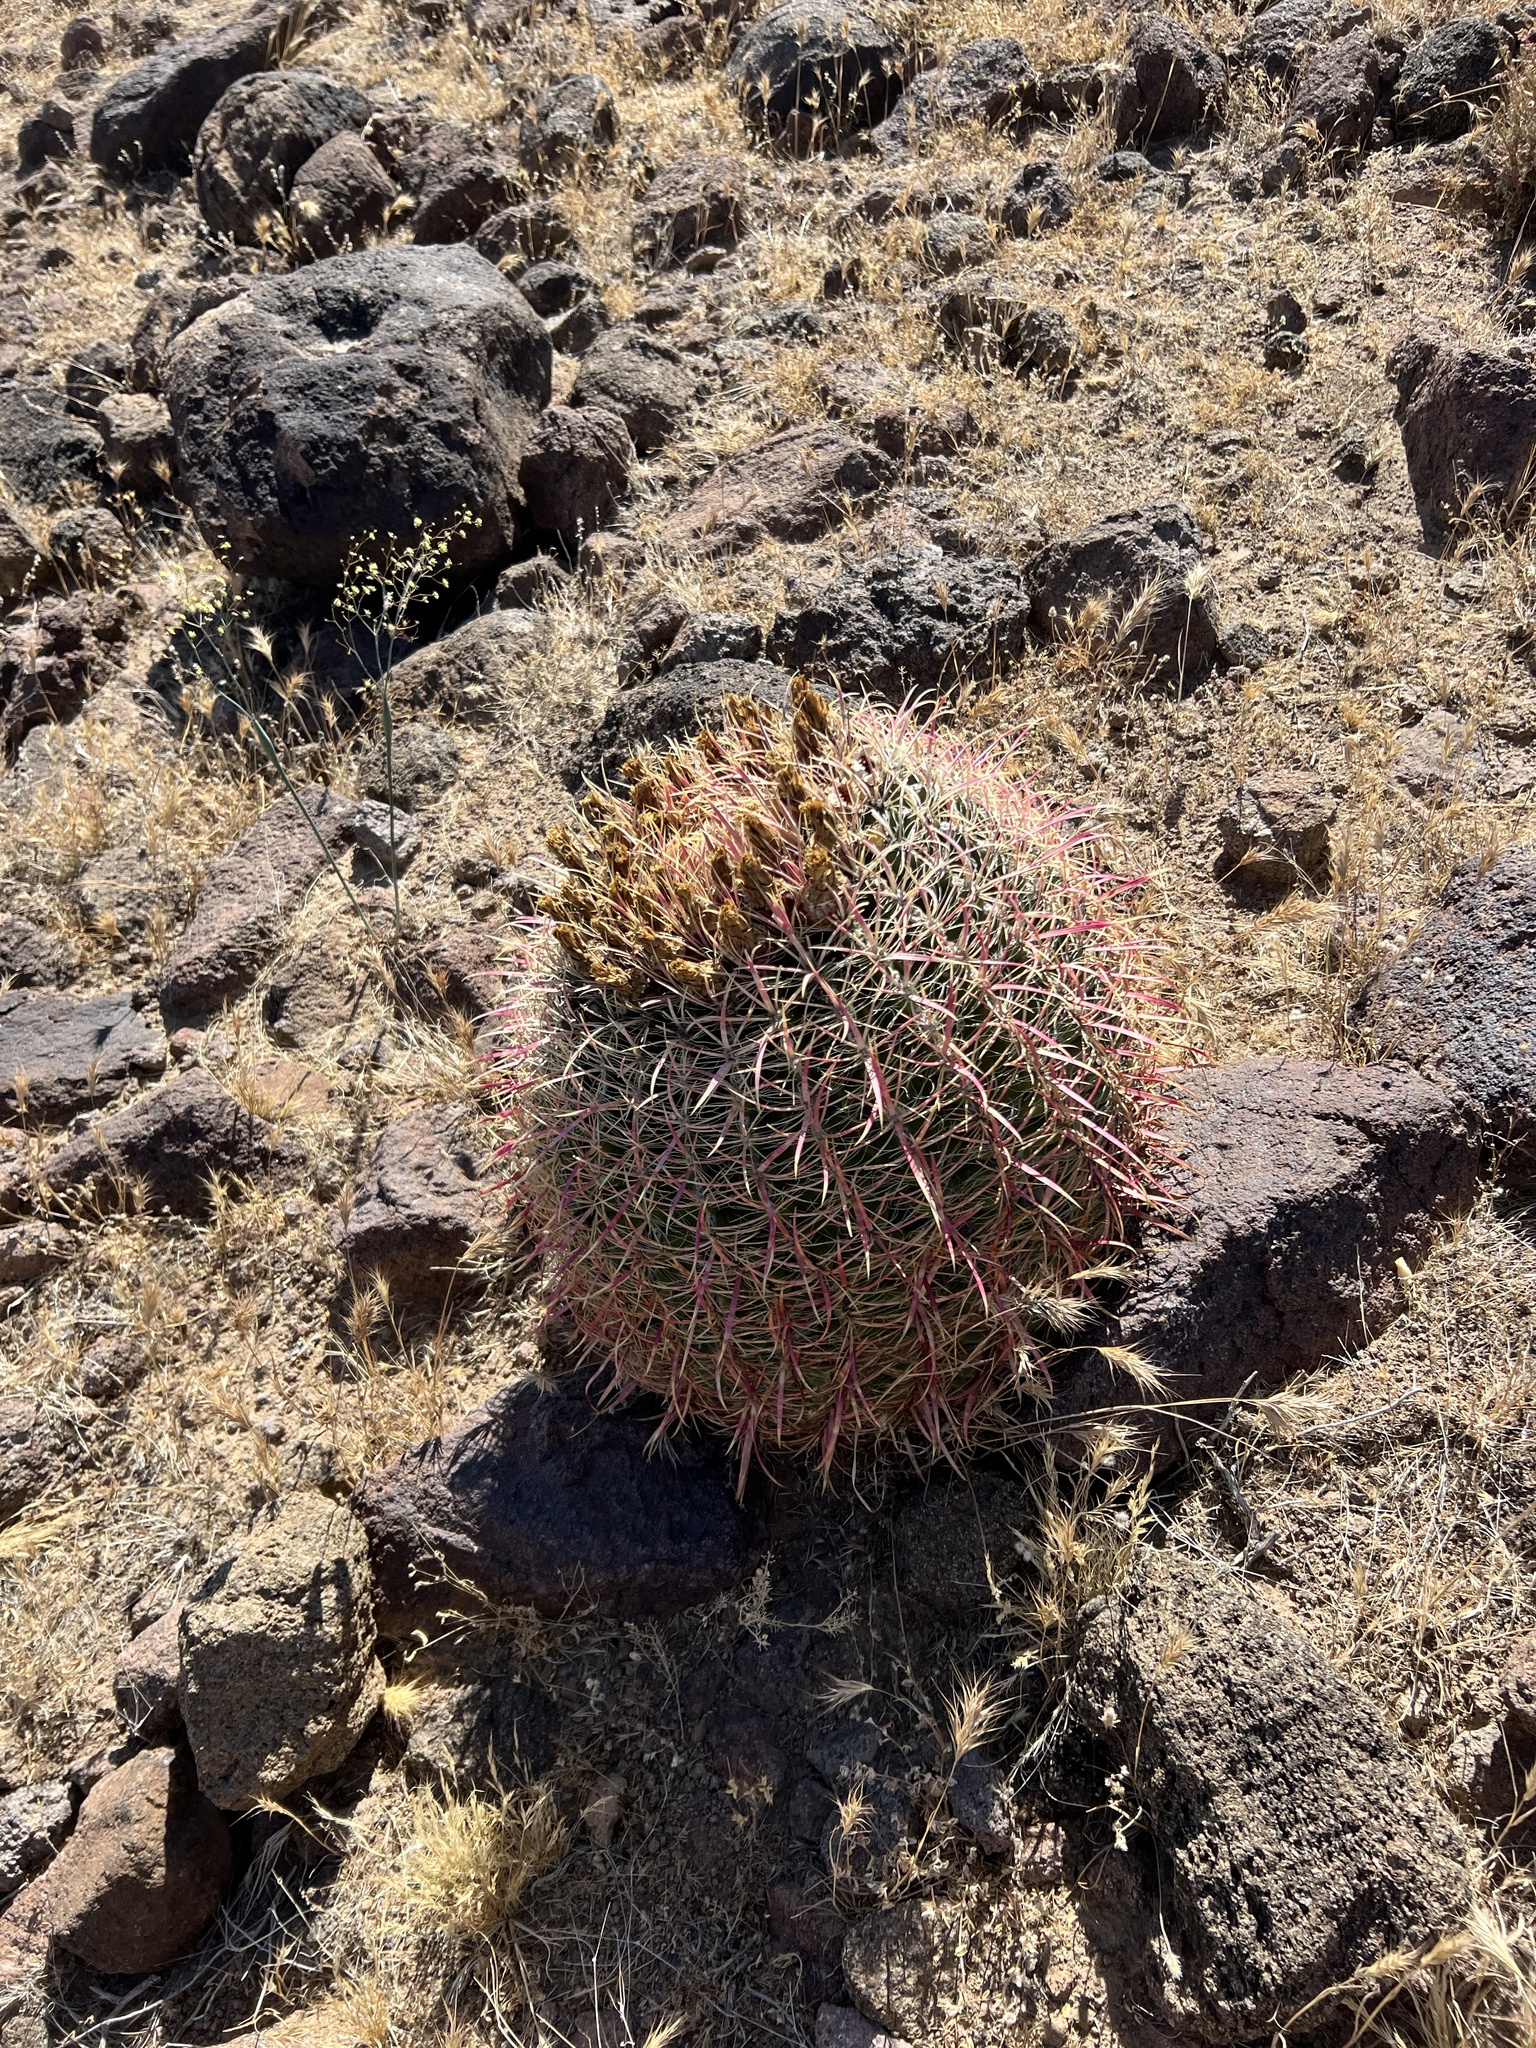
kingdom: Plantae
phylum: Tracheophyta
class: Magnoliopsida
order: Caryophyllales
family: Cactaceae
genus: Ferocactus
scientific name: Ferocactus cylindraceus
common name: California barrel cactus
